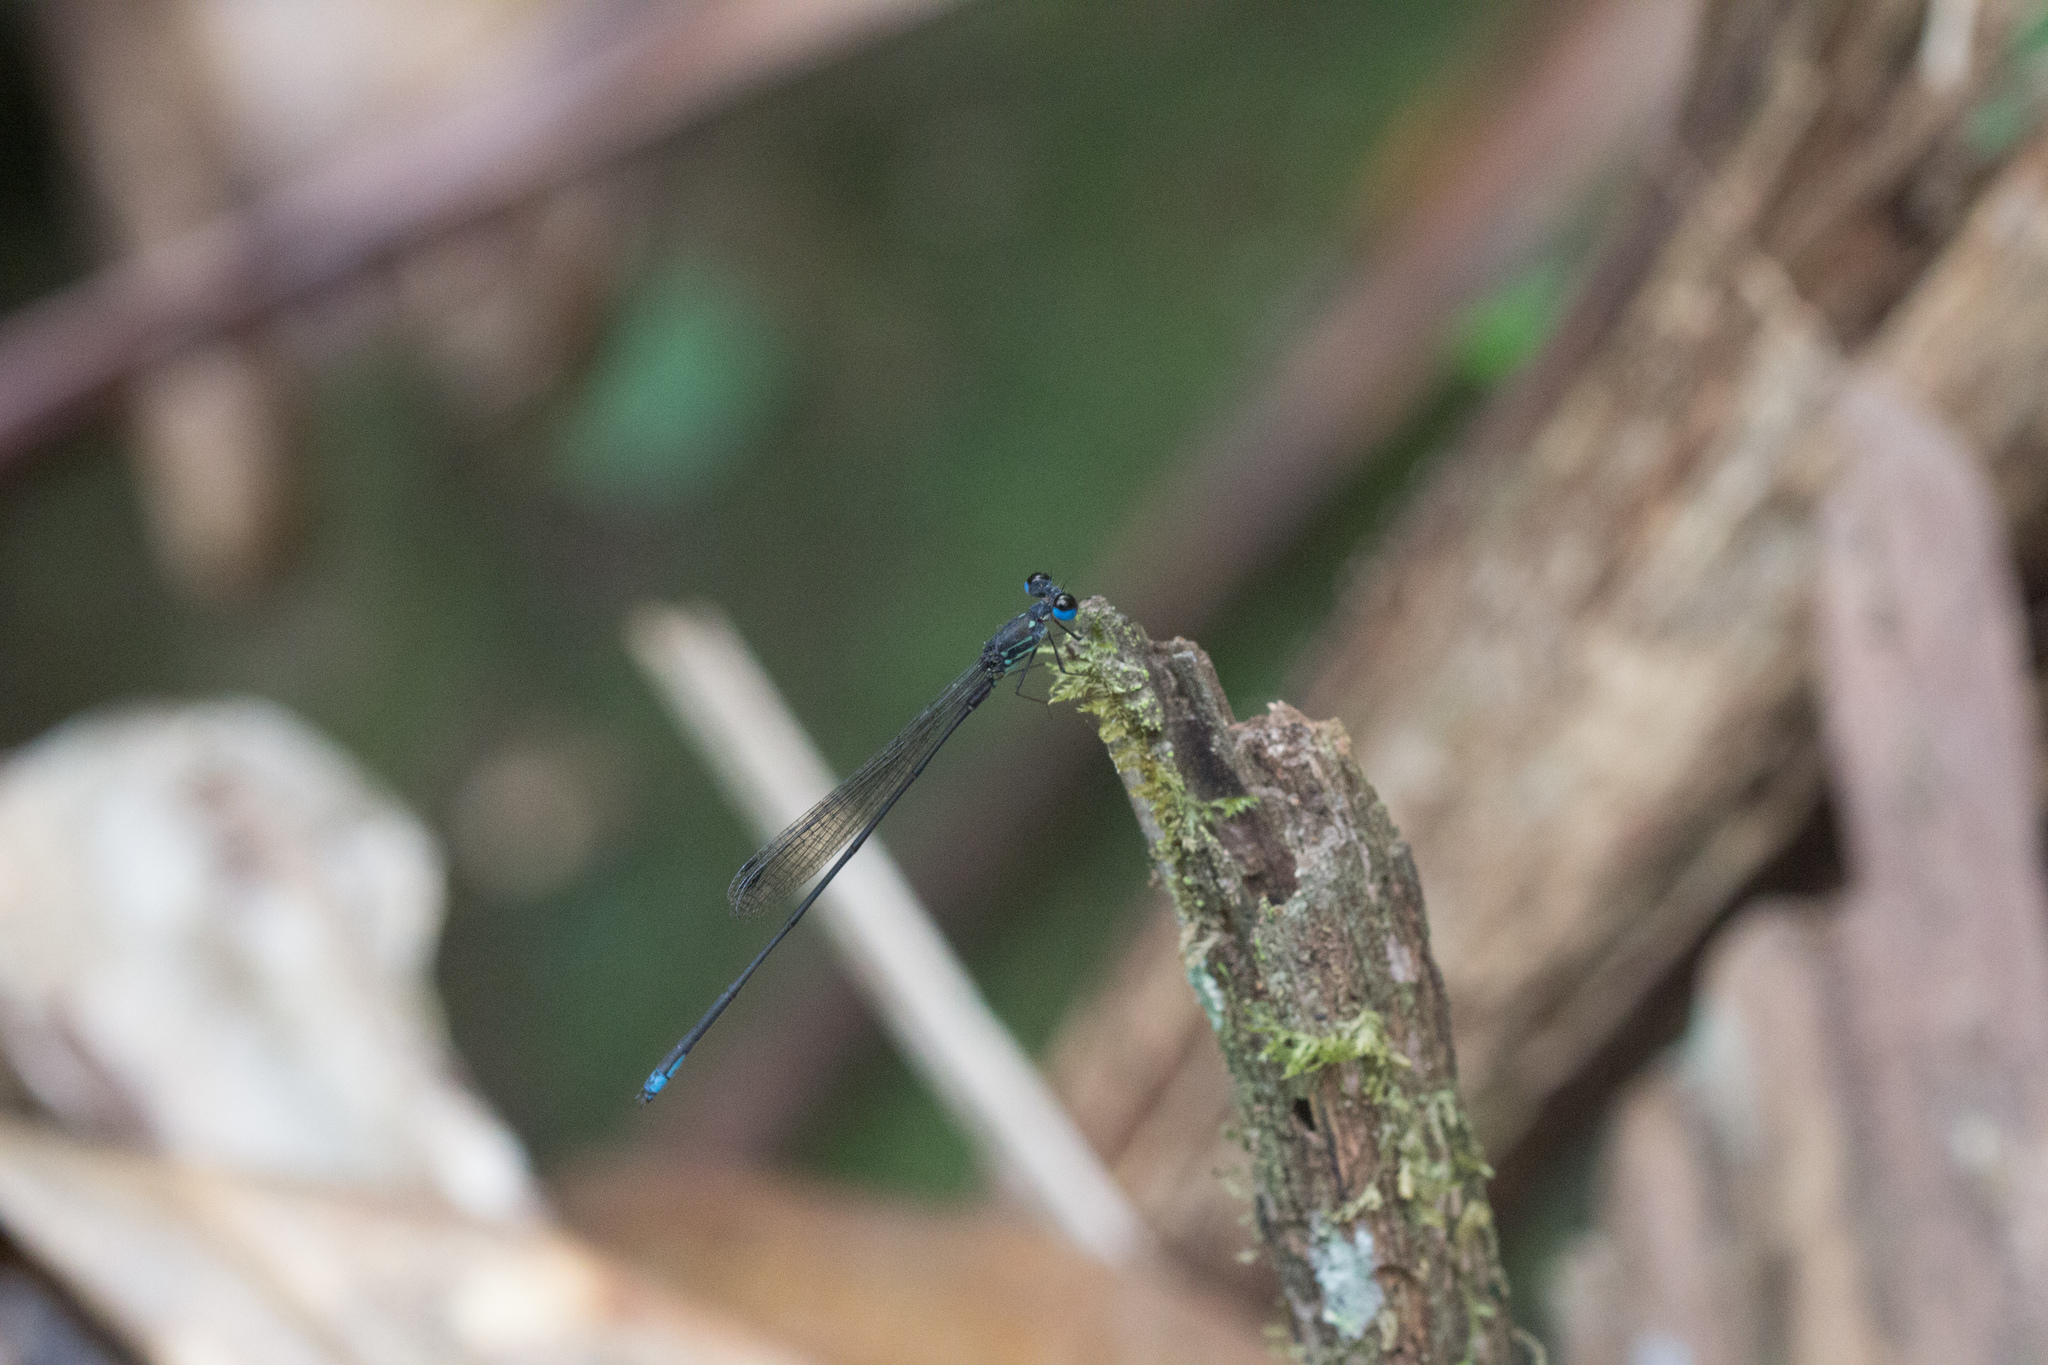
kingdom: Animalia
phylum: Arthropoda
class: Insecta
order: Odonata
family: Coenagrionidae
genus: Leptocnemis
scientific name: Leptocnemis cyanops
